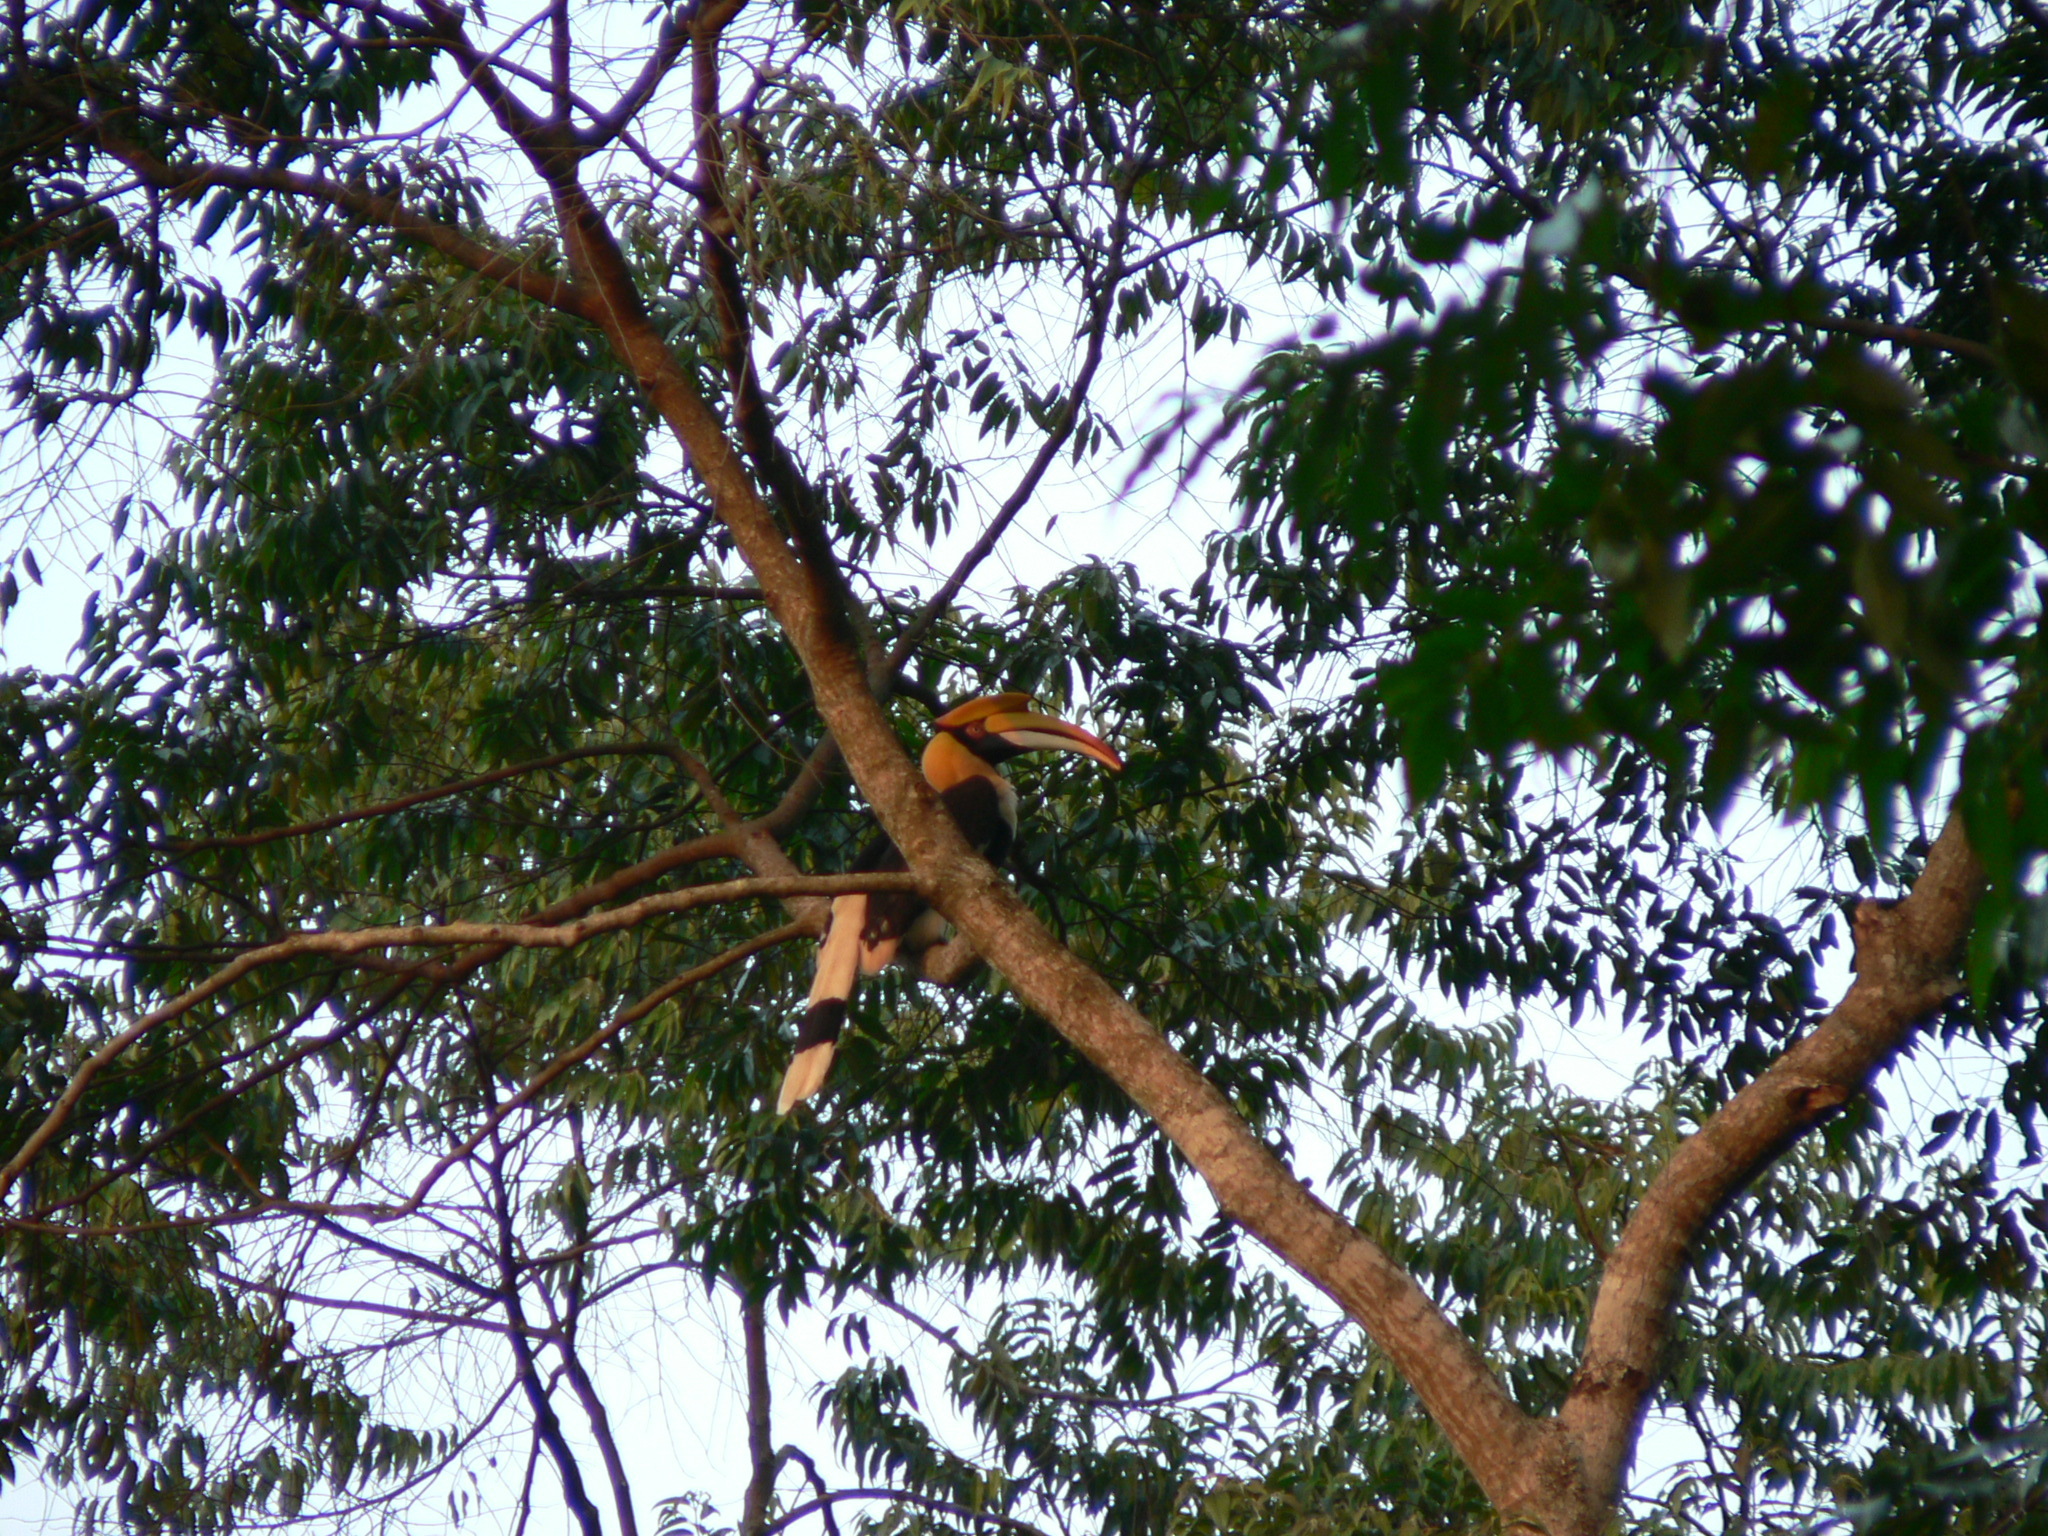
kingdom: Animalia
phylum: Chordata
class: Aves
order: Bucerotiformes
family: Bucerotidae
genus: Buceros
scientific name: Buceros bicornis
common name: Great hornbill
